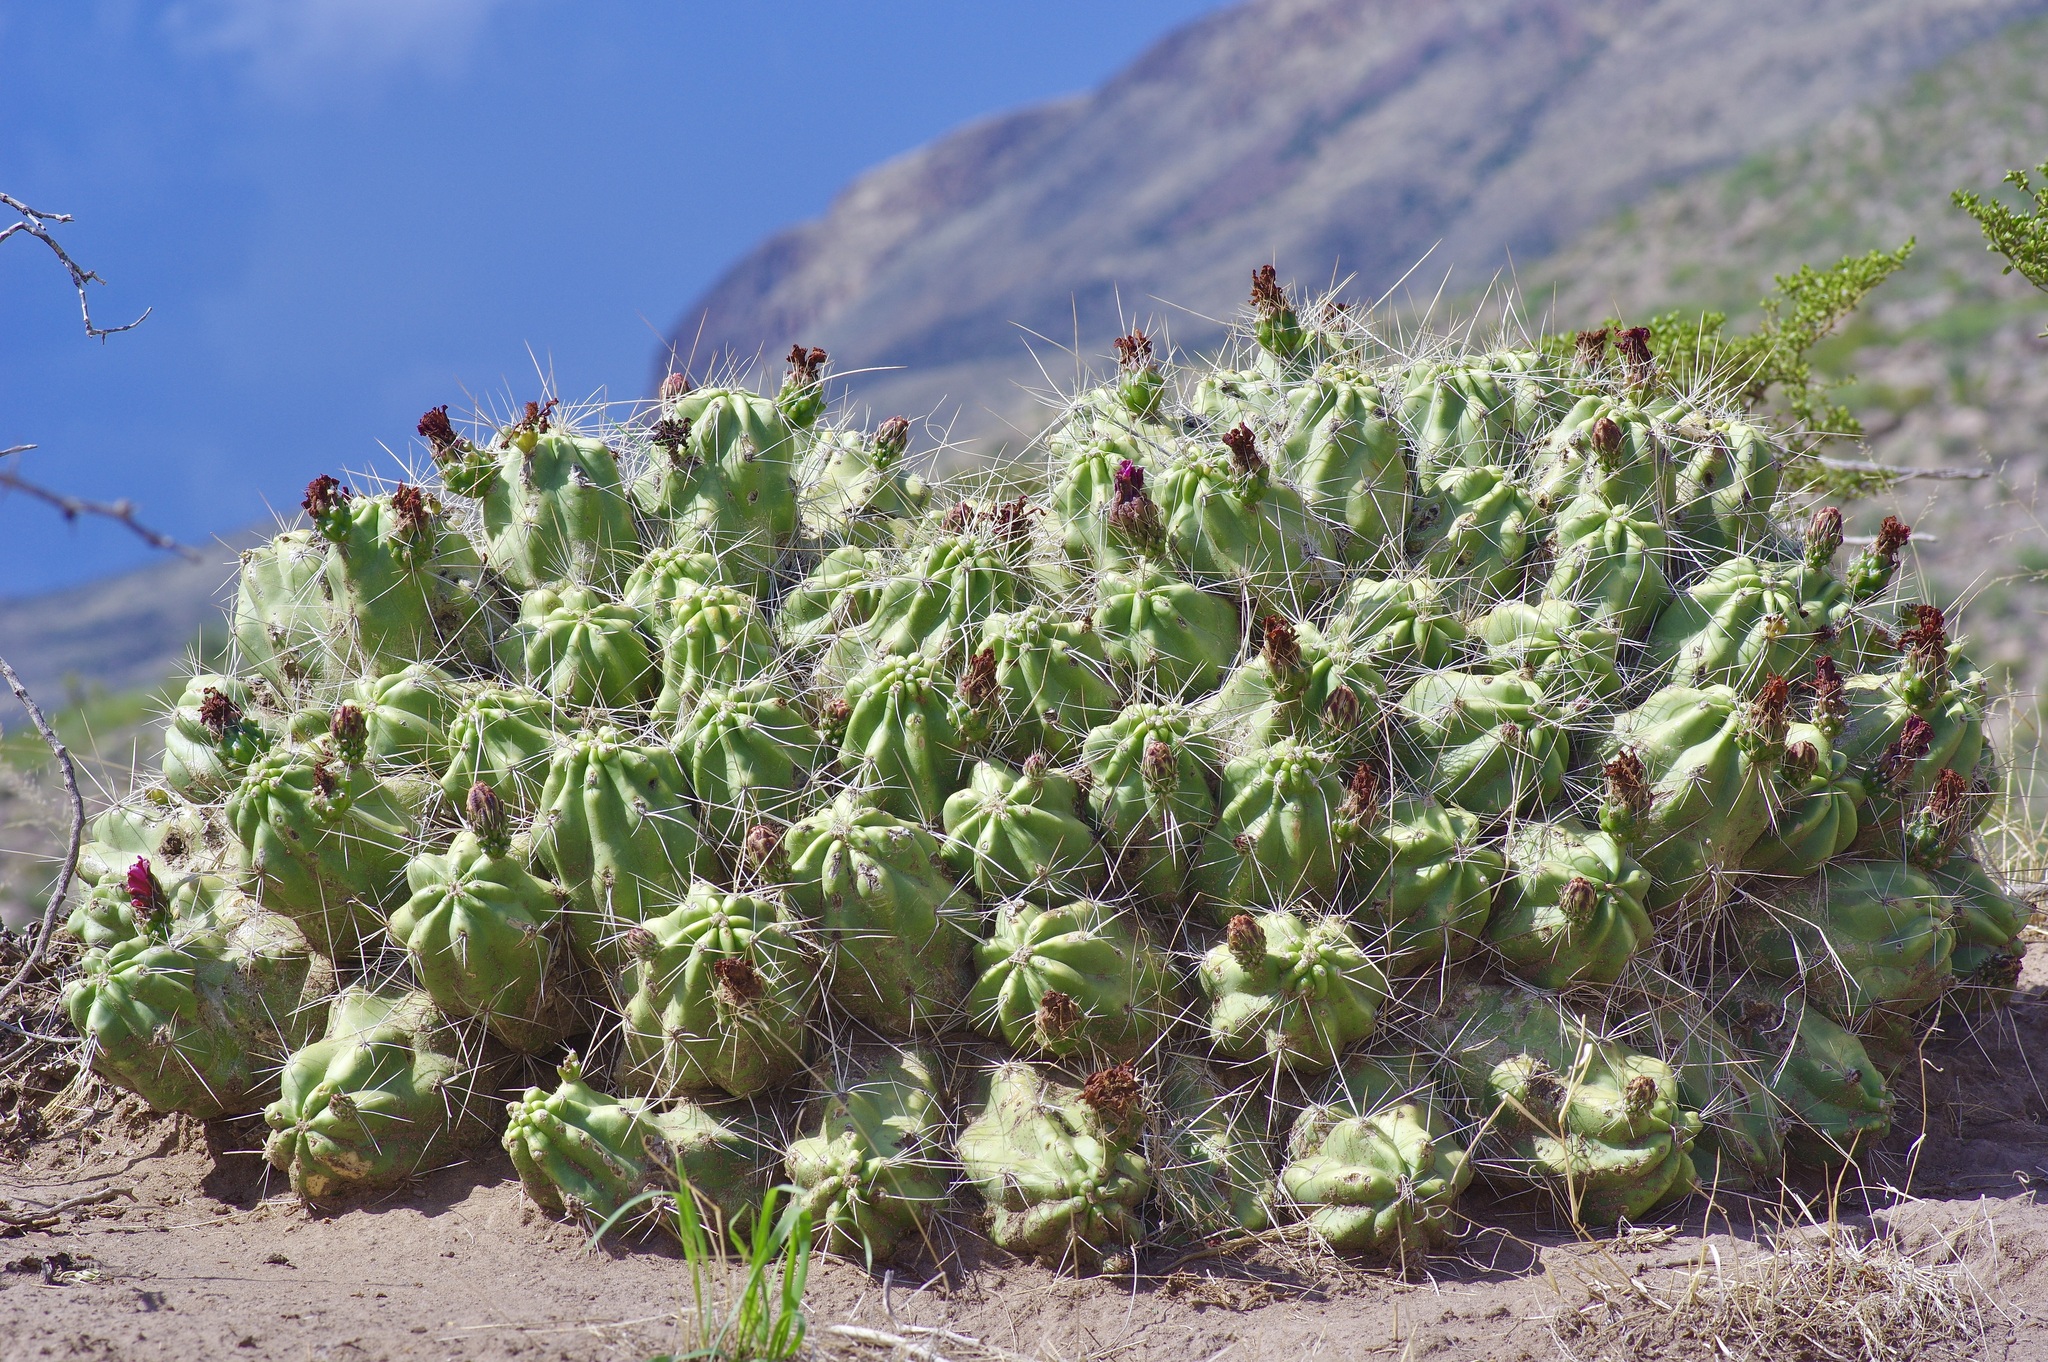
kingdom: Plantae
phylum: Tracheophyta
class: Magnoliopsida
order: Caryophyllales
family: Cactaceae
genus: Echinocereus
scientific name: Echinocereus enneacanthus
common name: Pitaya
